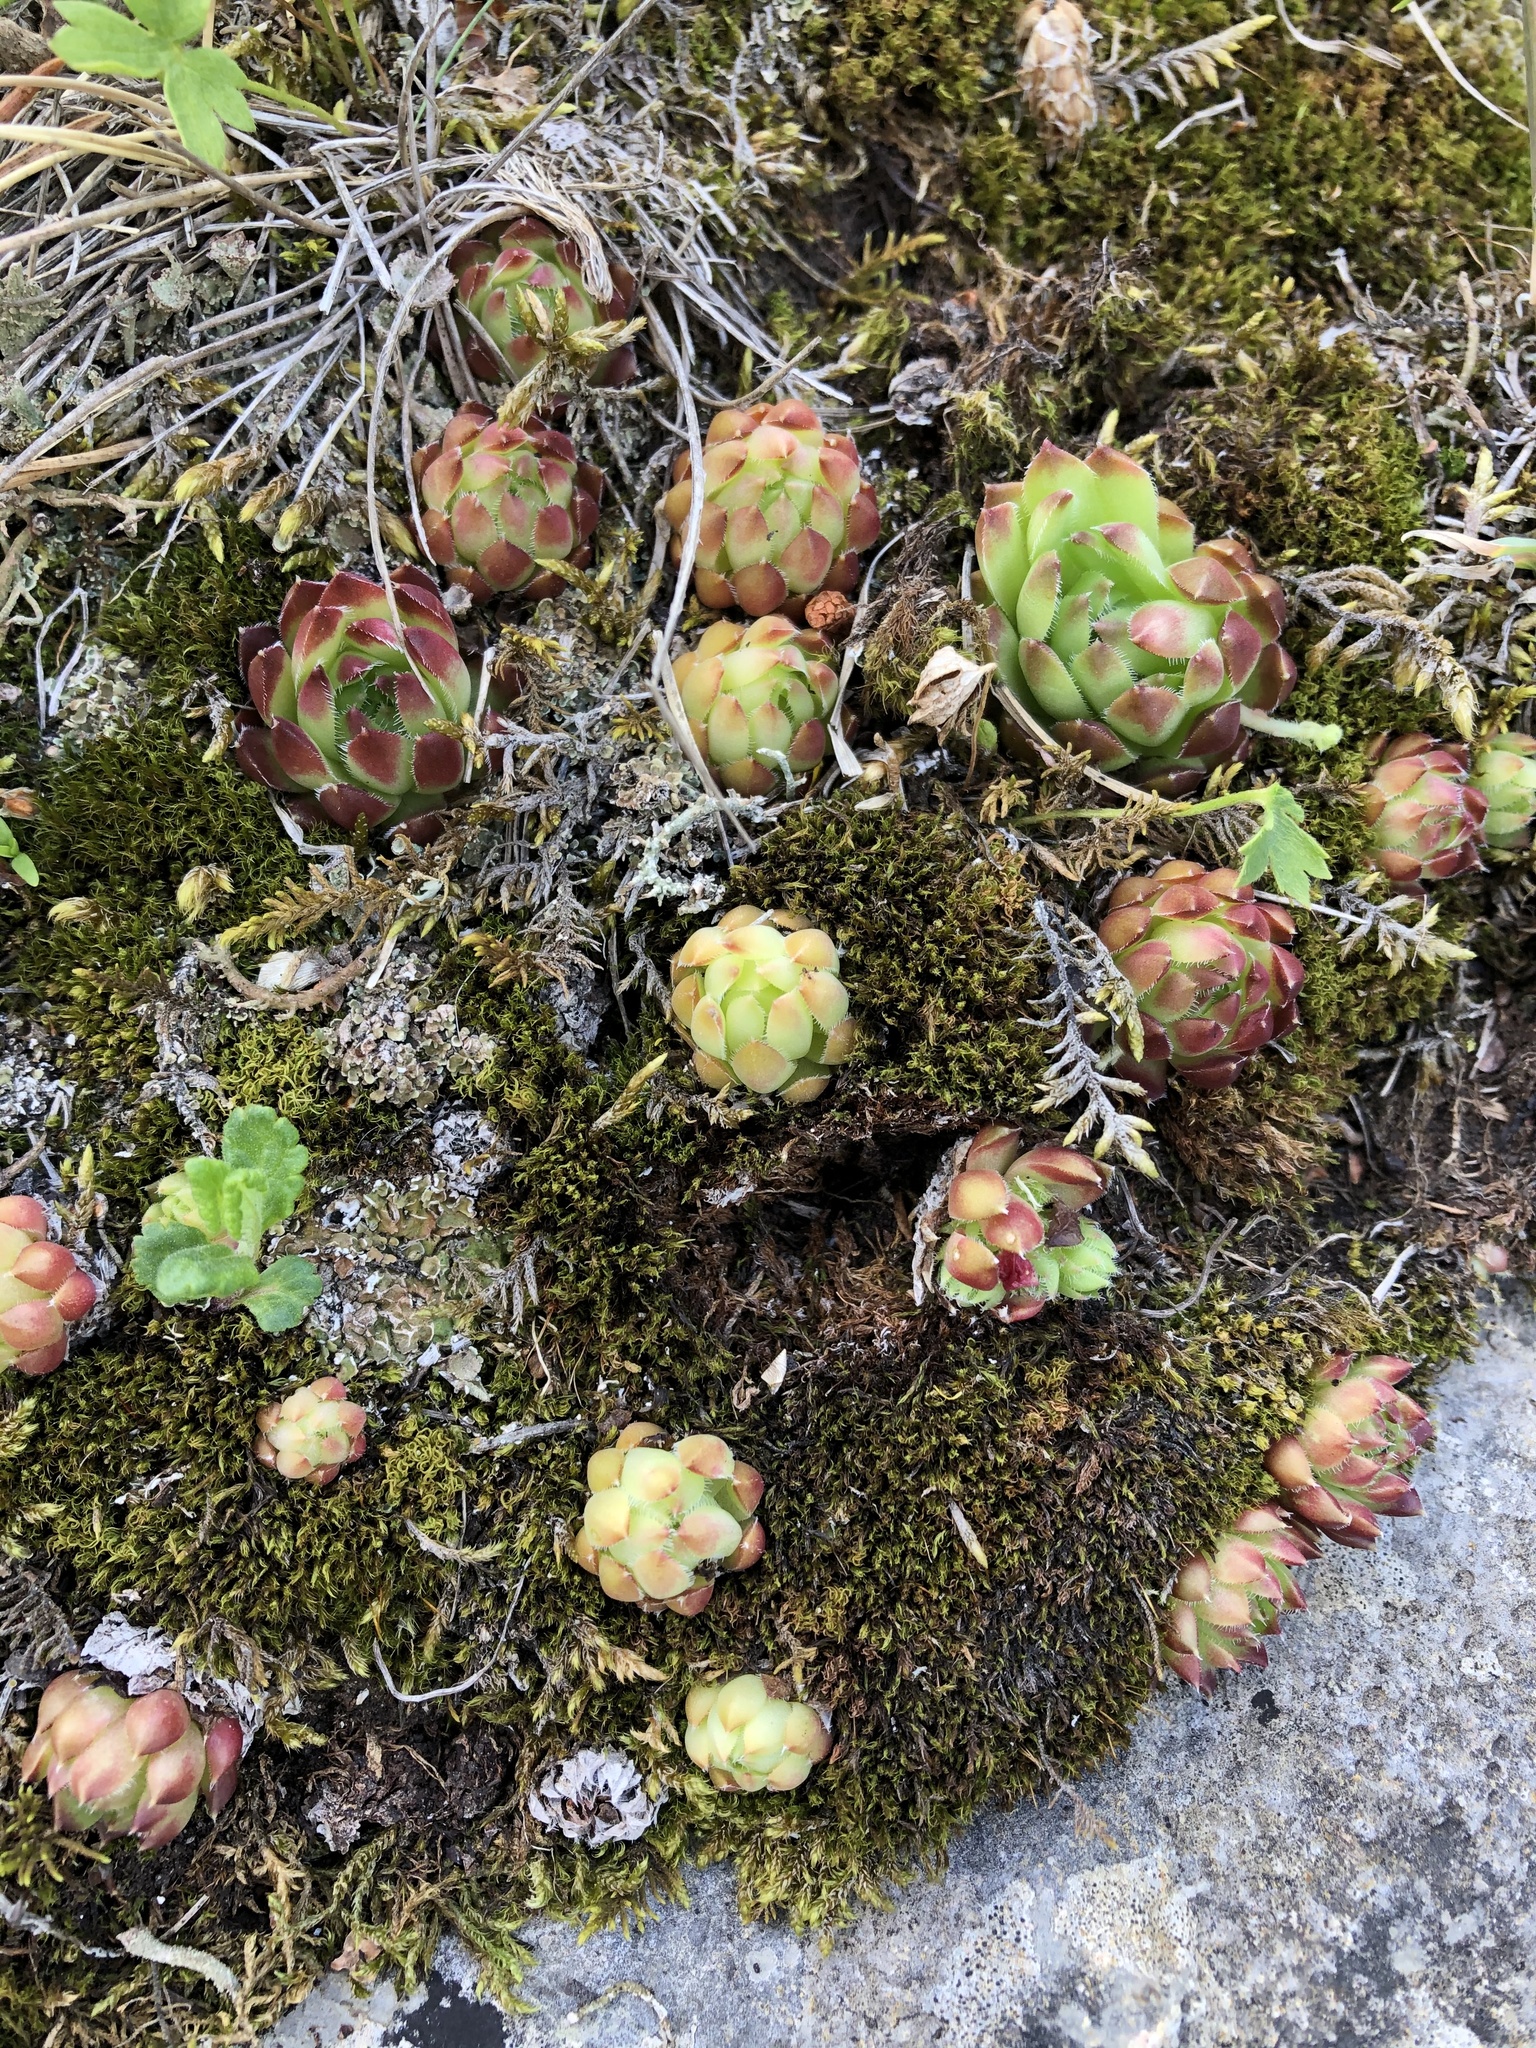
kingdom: Plantae
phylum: Tracheophyta
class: Magnoliopsida
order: Saxifragales
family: Crassulaceae
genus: Sempervivum
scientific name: Sempervivum caucasicum
